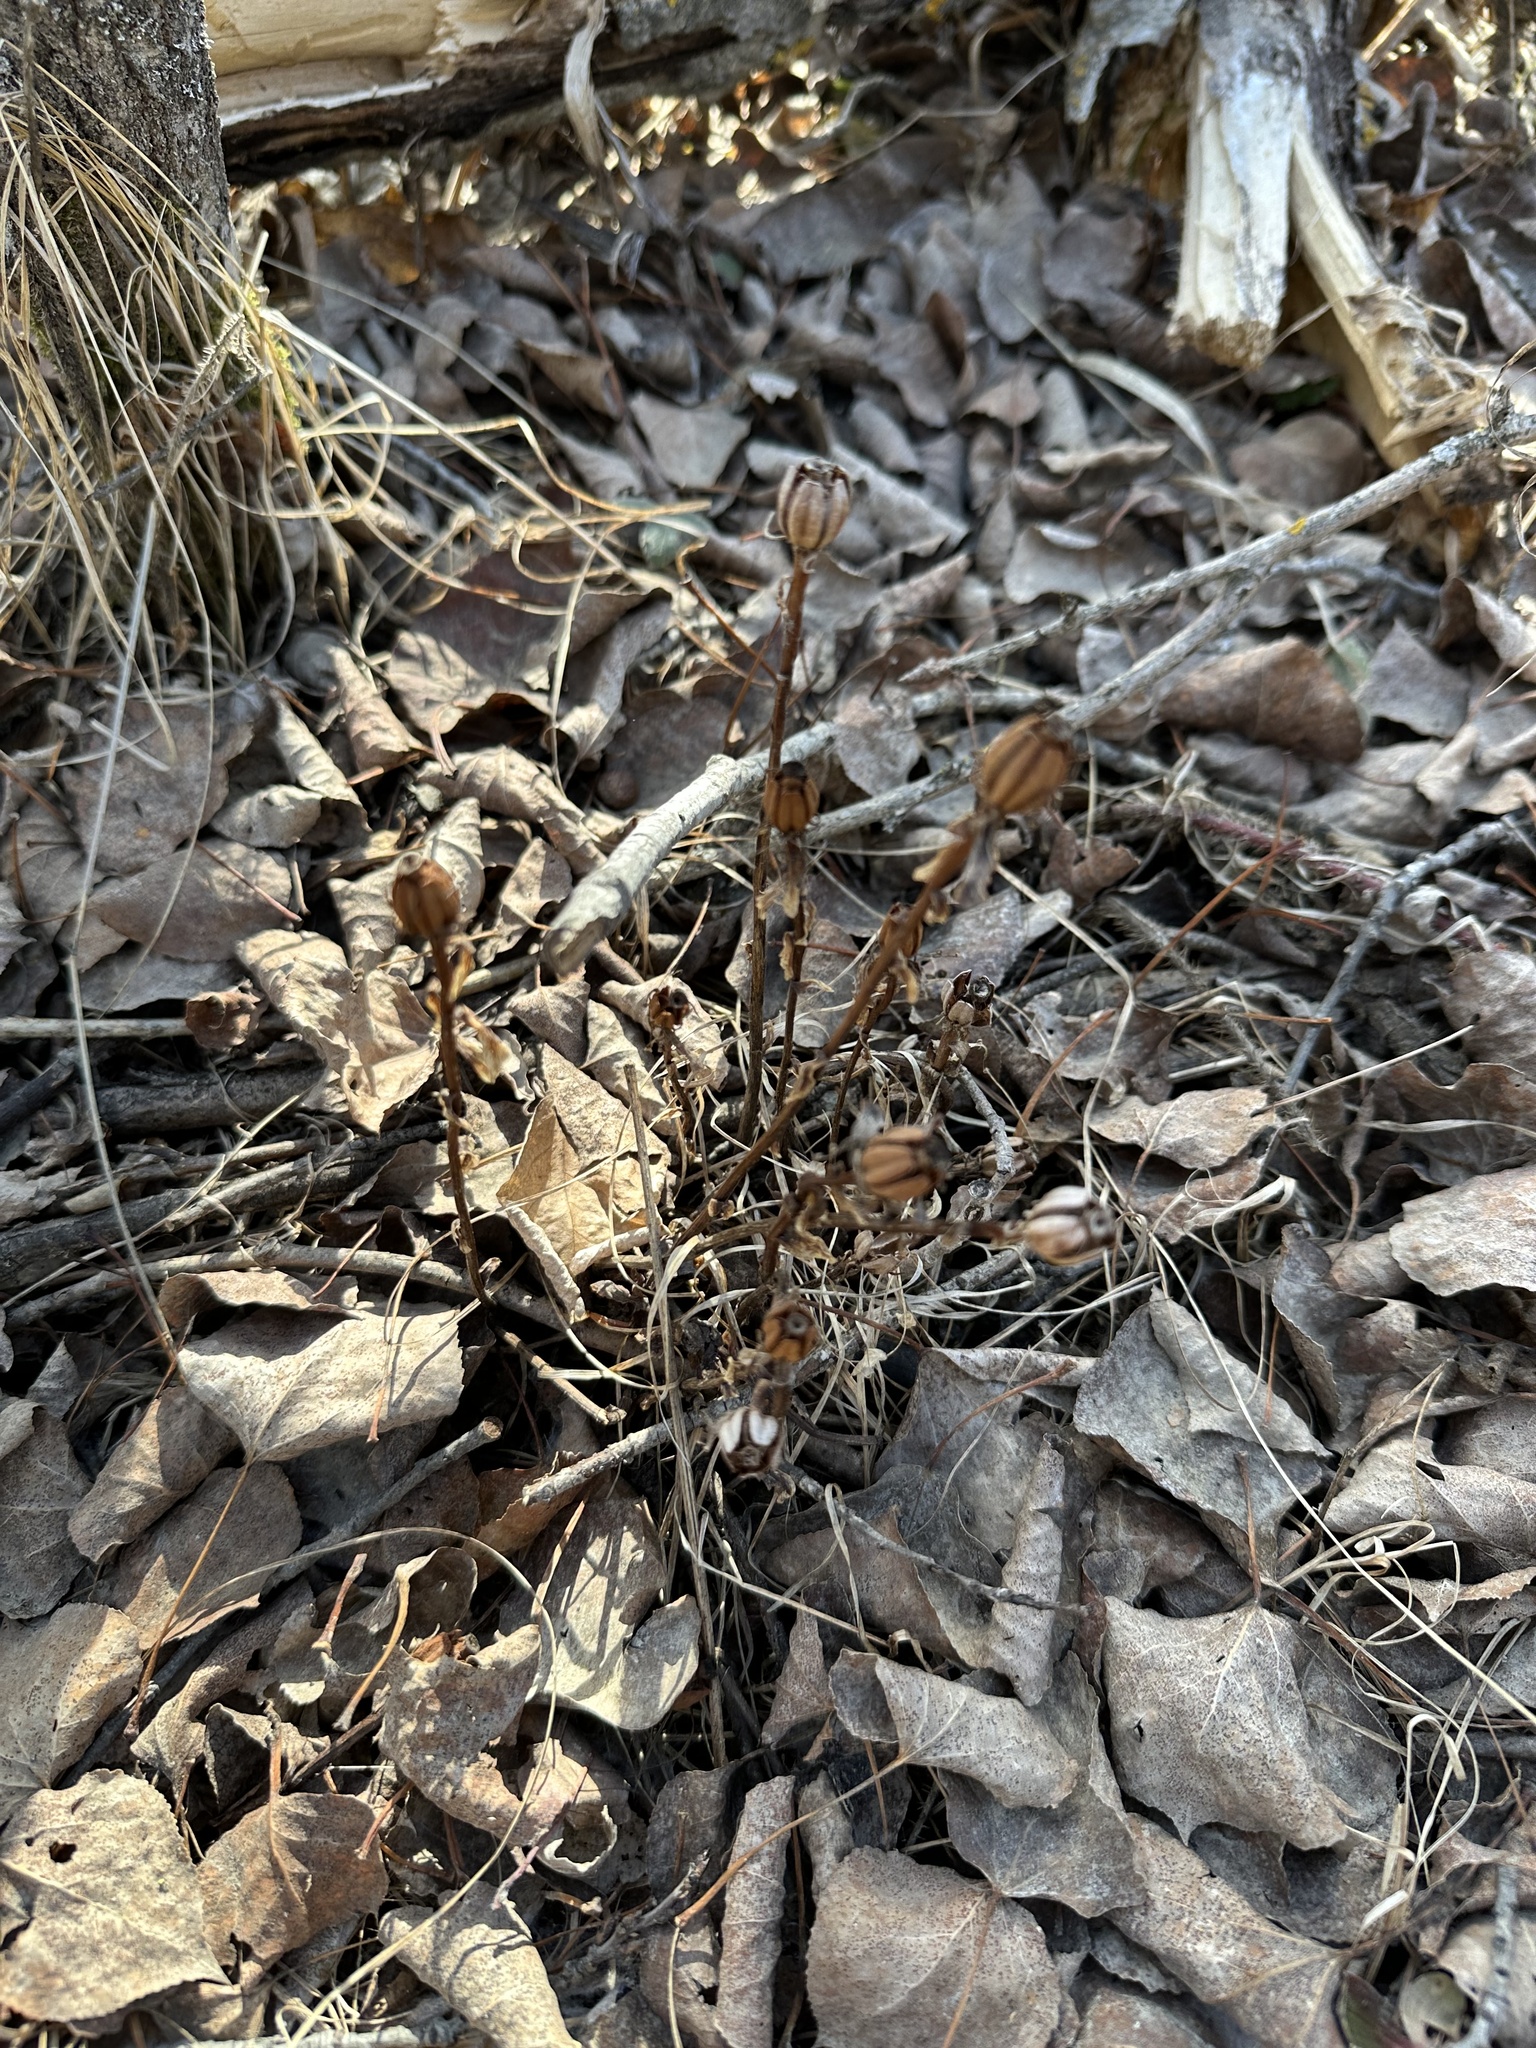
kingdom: Plantae
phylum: Tracheophyta
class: Magnoliopsida
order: Ericales
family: Ericaceae
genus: Monotropa
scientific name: Monotropa uniflora
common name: Convulsion root
